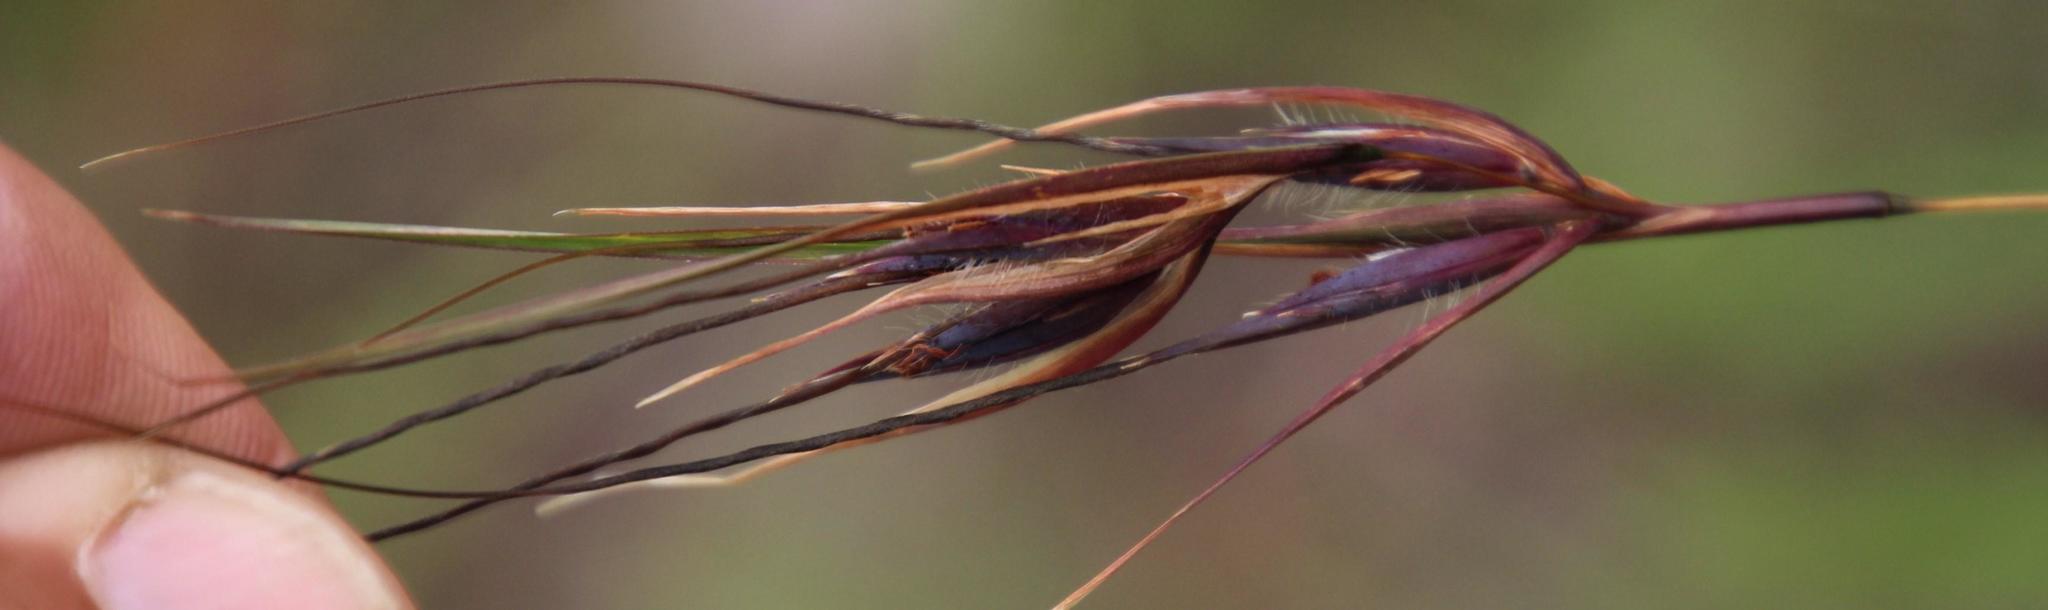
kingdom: Plantae
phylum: Tracheophyta
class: Liliopsida
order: Poales
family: Poaceae
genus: Themeda
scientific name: Themeda triandra
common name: Kangaroo grass
